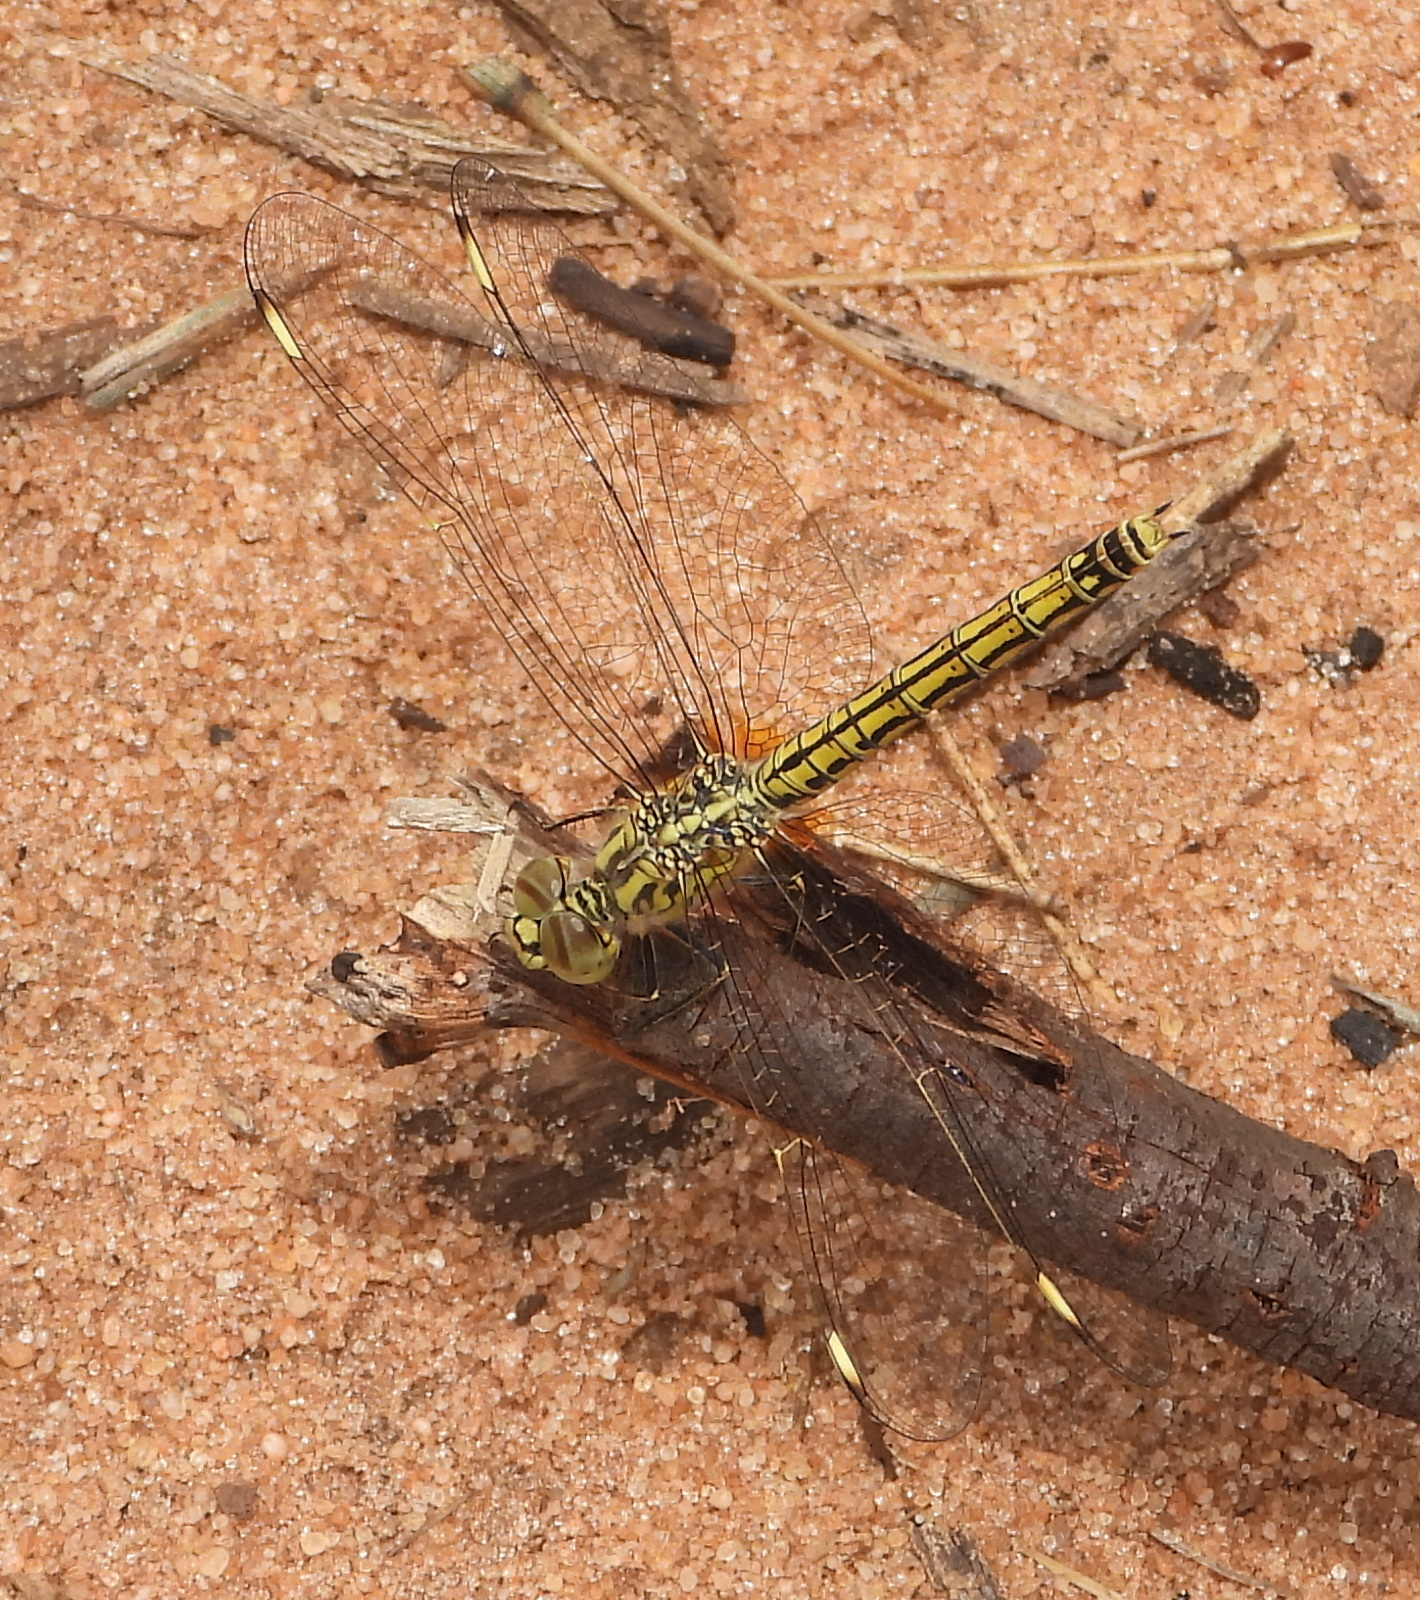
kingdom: Animalia
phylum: Arthropoda
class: Insecta
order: Odonata
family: Libellulidae
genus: Brachythemis
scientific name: Brachythemis leucosticta
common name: Banded groundling
